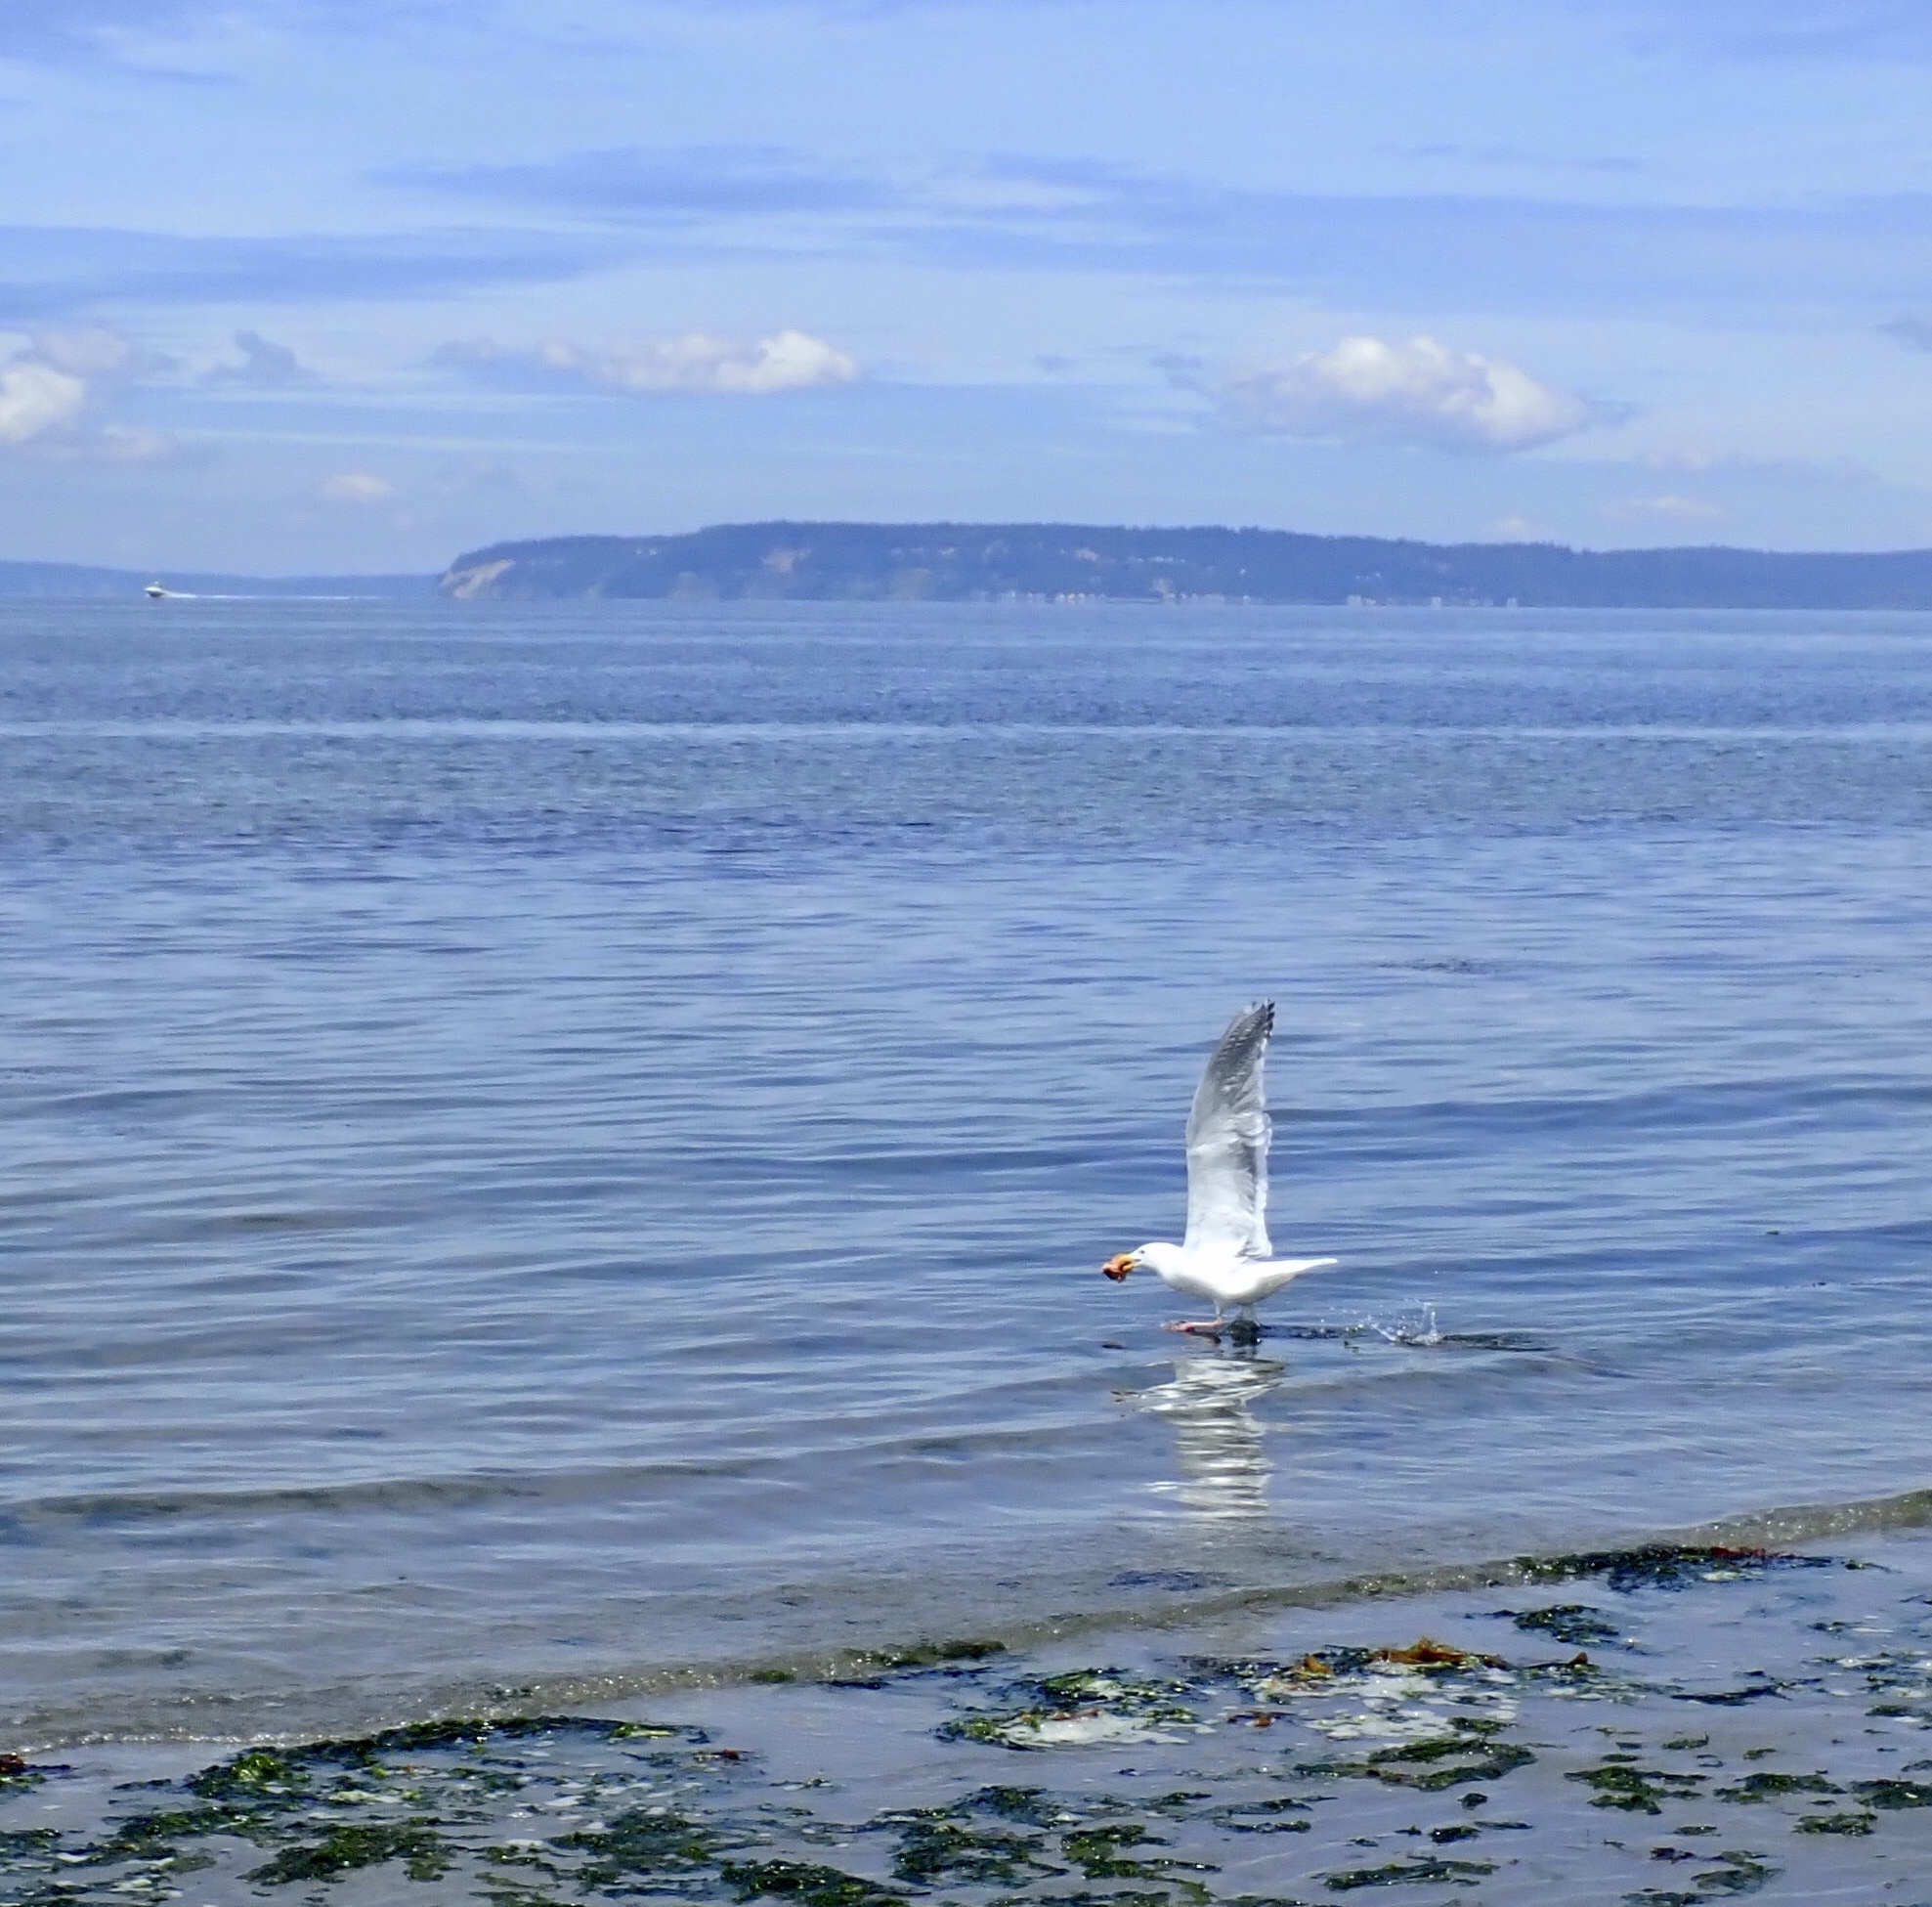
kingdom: Animalia
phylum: Chordata
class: Aves
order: Charadriiformes
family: Laridae
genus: Larus
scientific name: Larus
